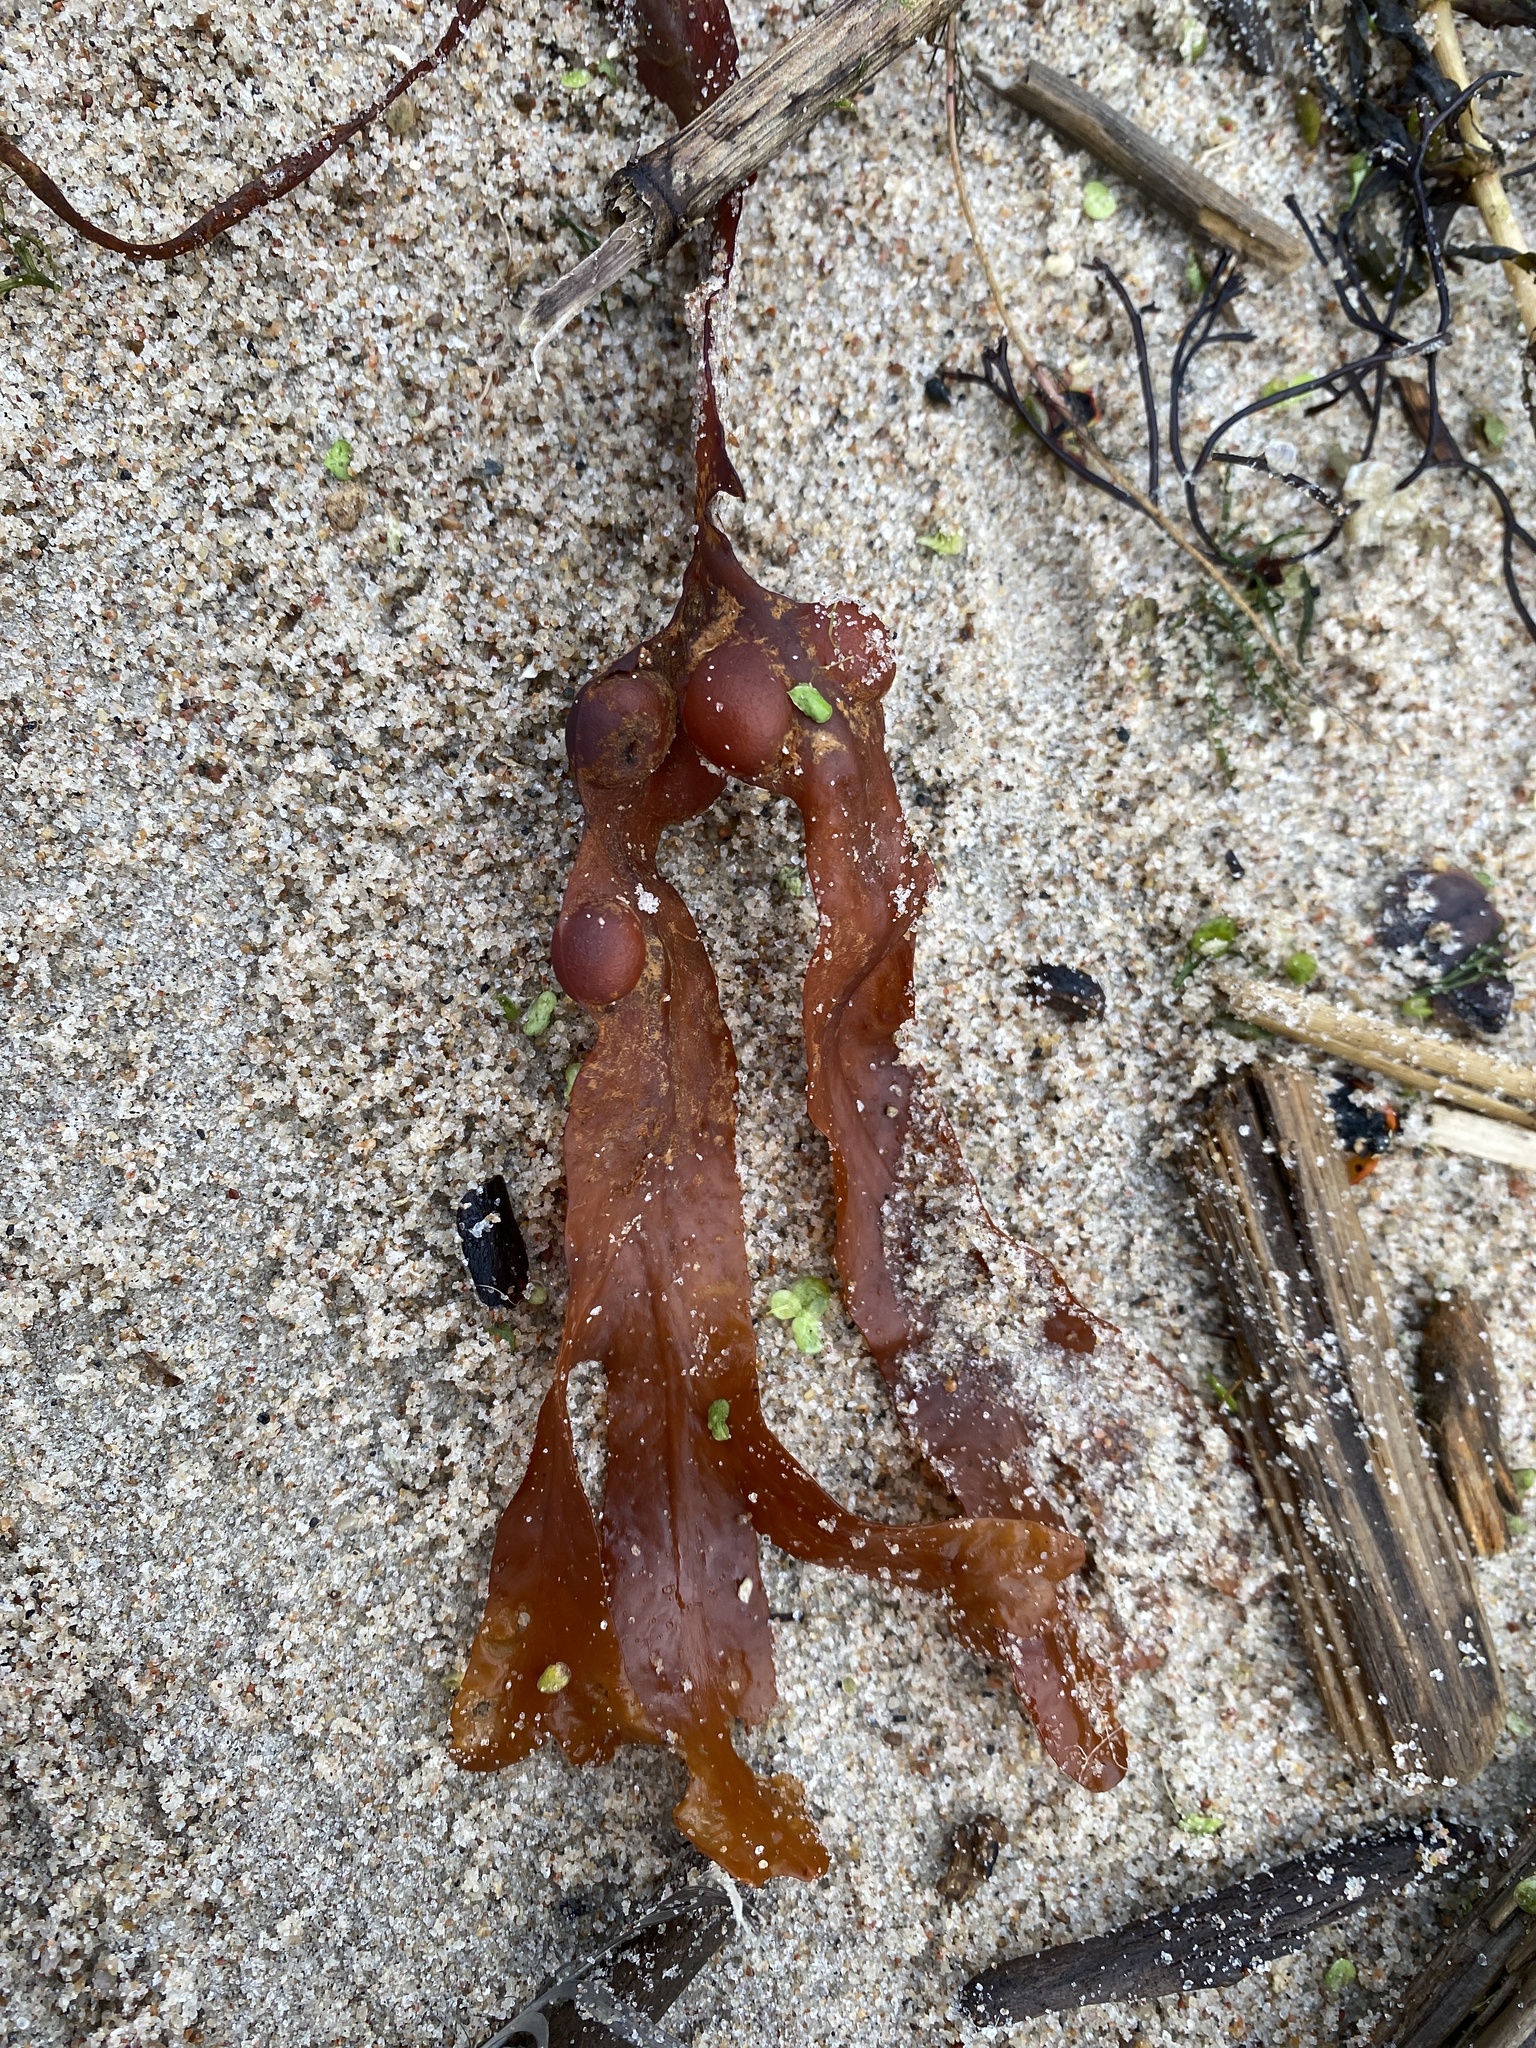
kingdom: Chromista
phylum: Ochrophyta
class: Phaeophyceae
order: Fucales
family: Fucaceae
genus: Fucus
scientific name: Fucus vesiculosus
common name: Bladder wrack
